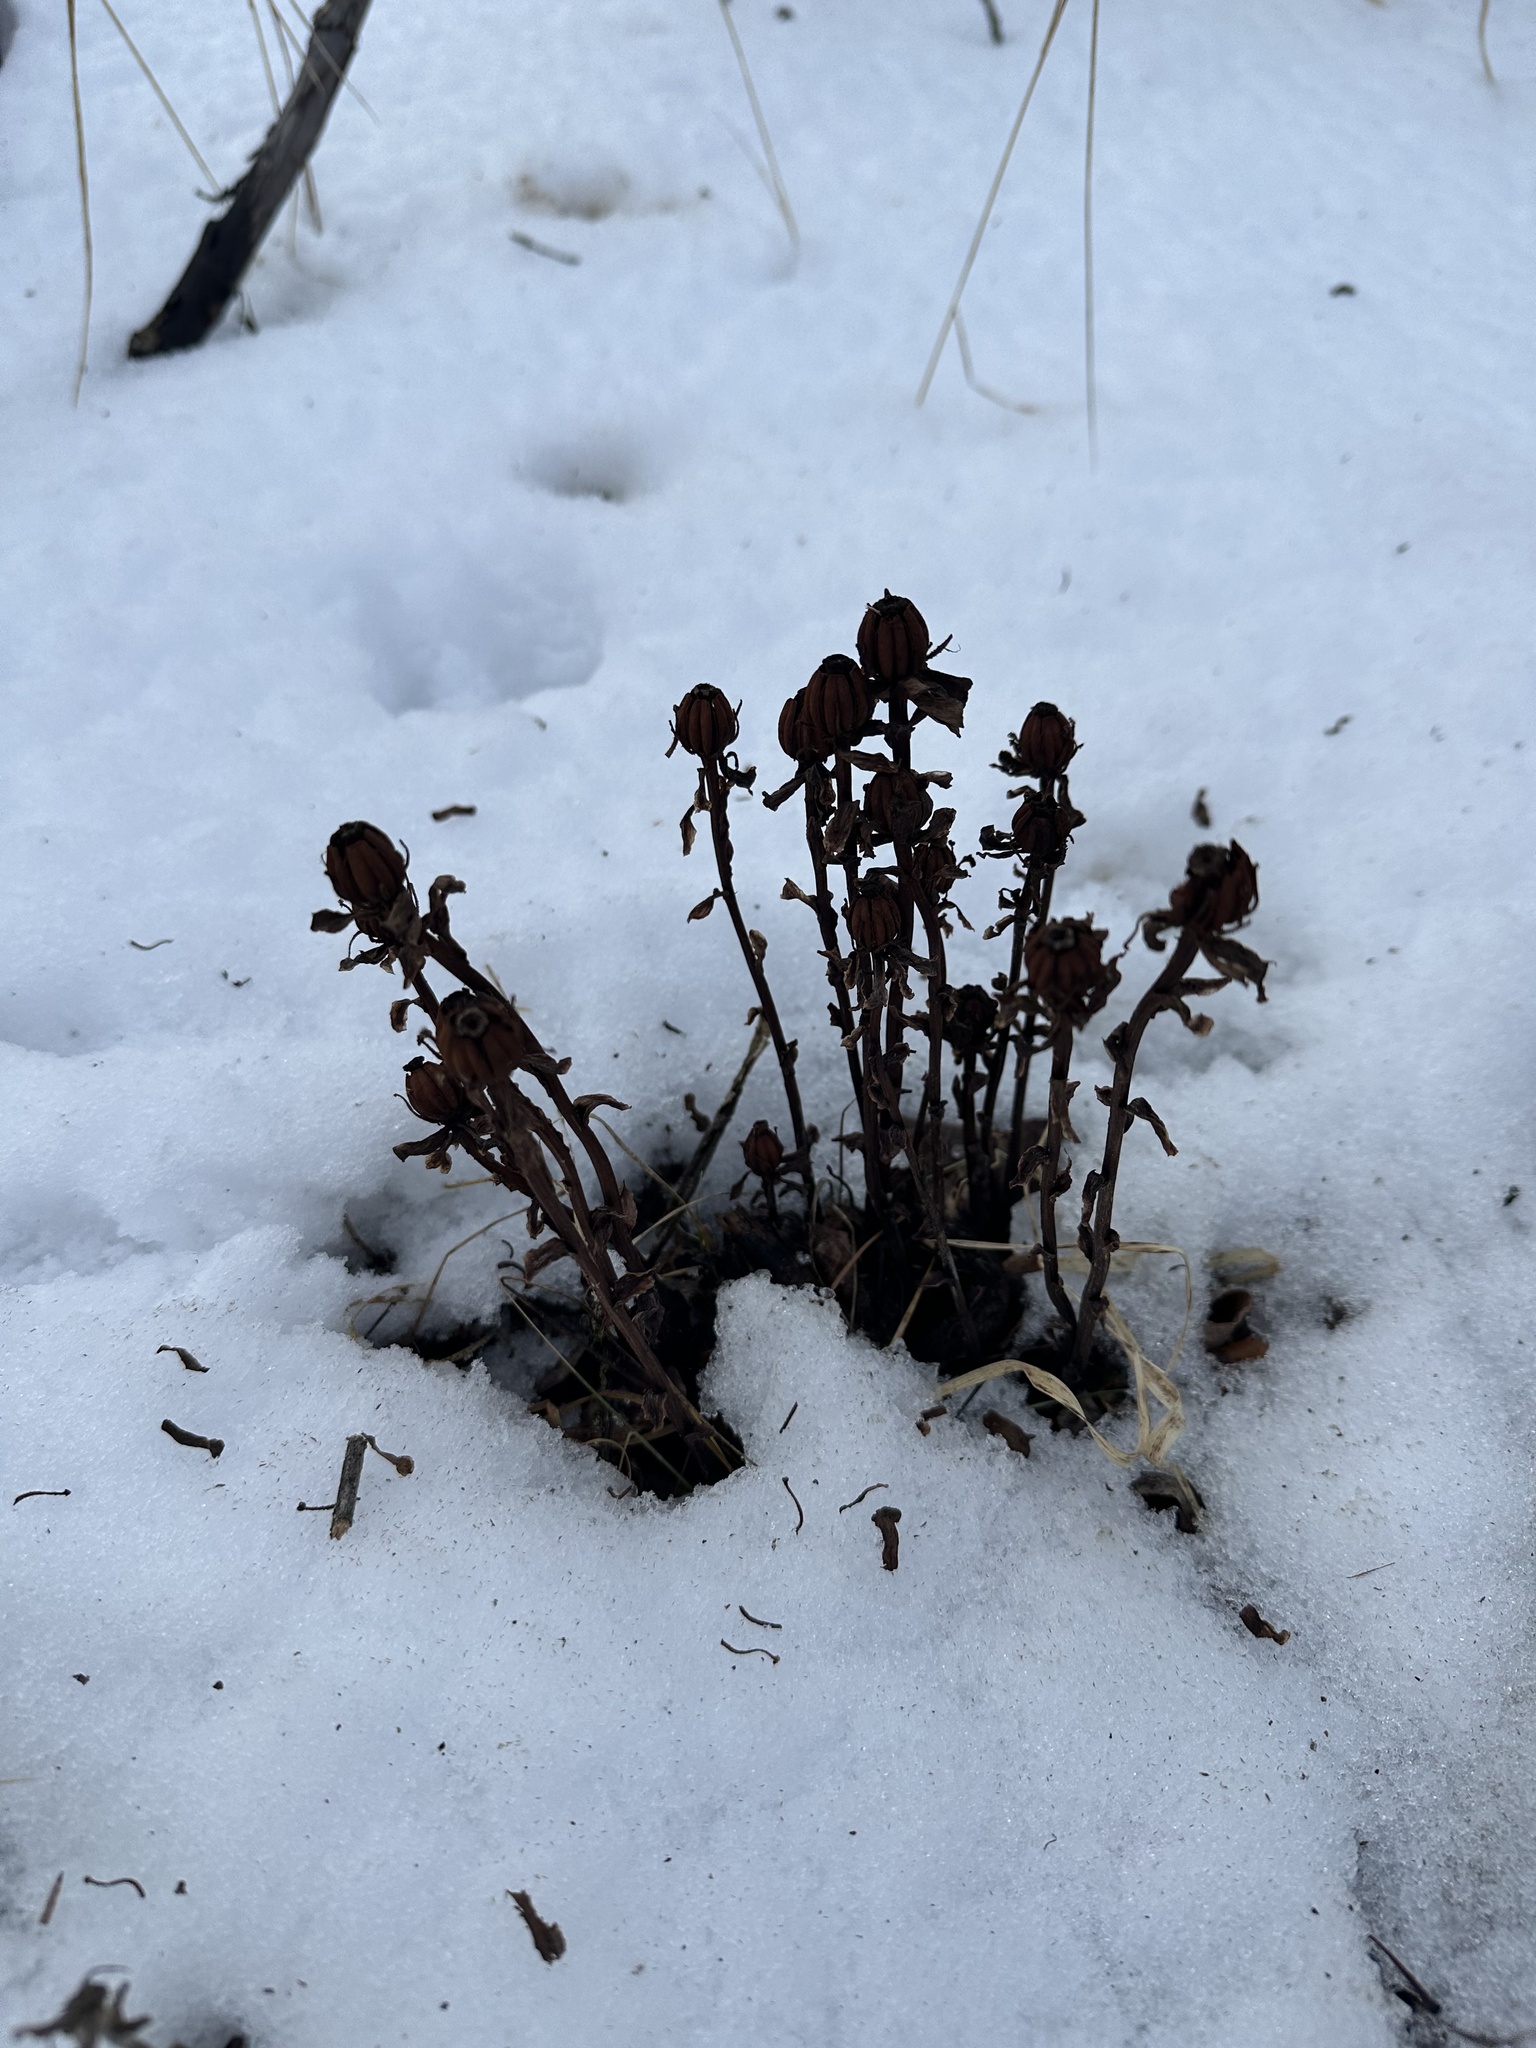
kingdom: Plantae
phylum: Tracheophyta
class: Magnoliopsida
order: Ericales
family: Ericaceae
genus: Monotropa
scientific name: Monotropa uniflora
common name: Convulsion root
